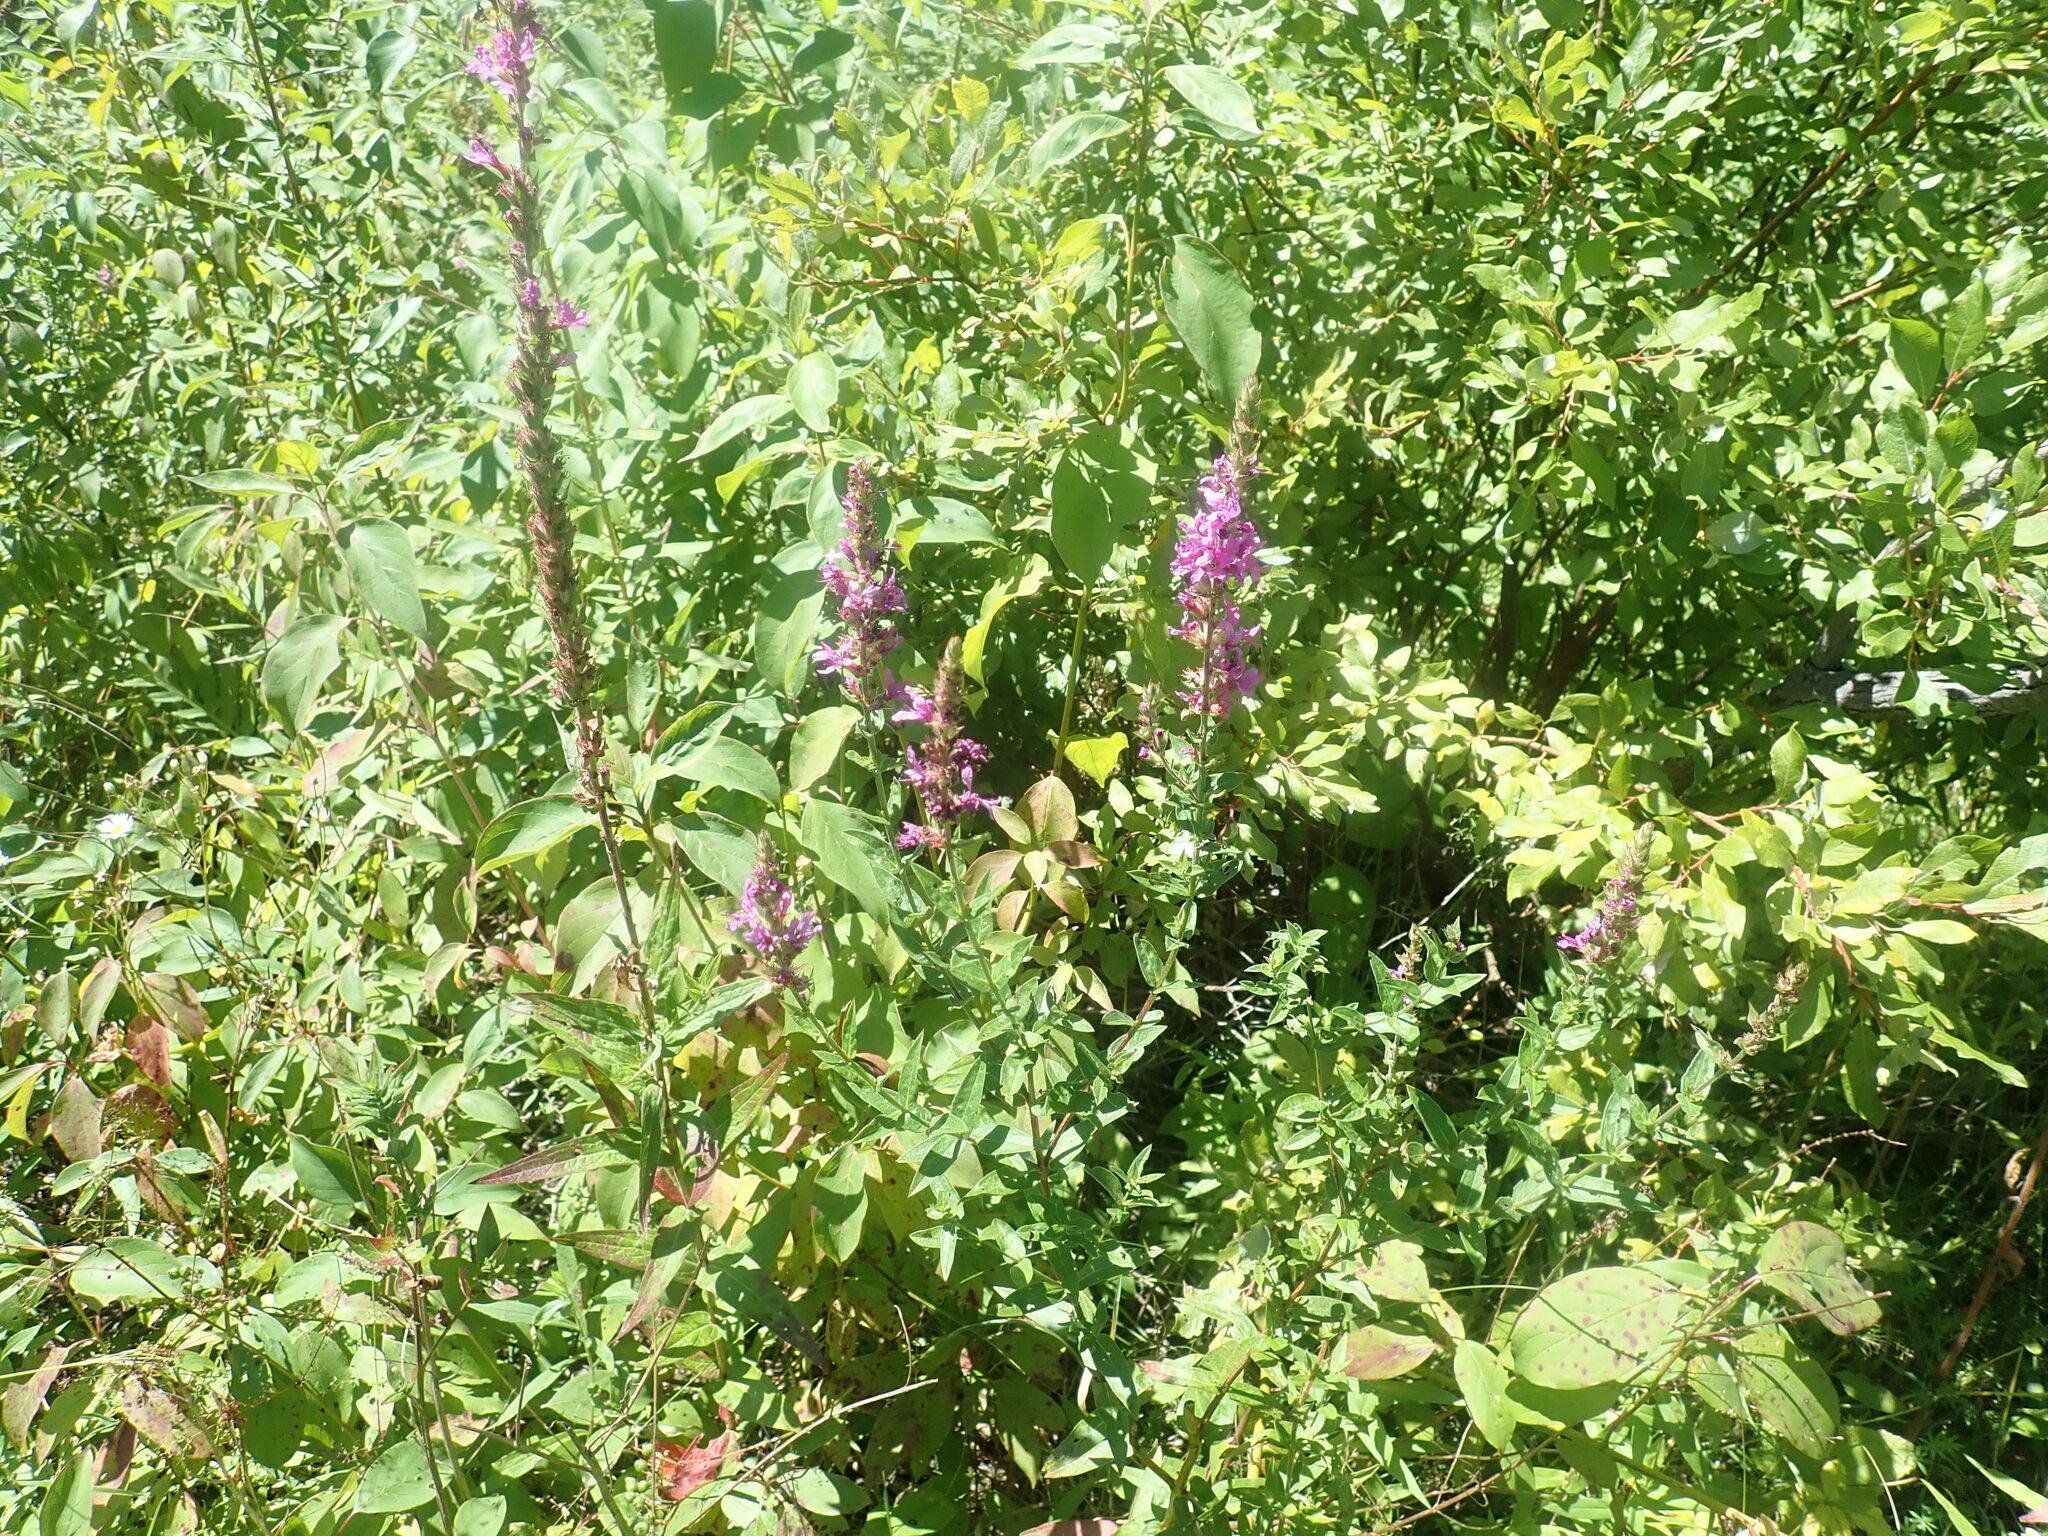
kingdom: Plantae
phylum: Tracheophyta
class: Magnoliopsida
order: Myrtales
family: Lythraceae
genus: Lythrum
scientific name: Lythrum salicaria
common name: Purple loosestrife
